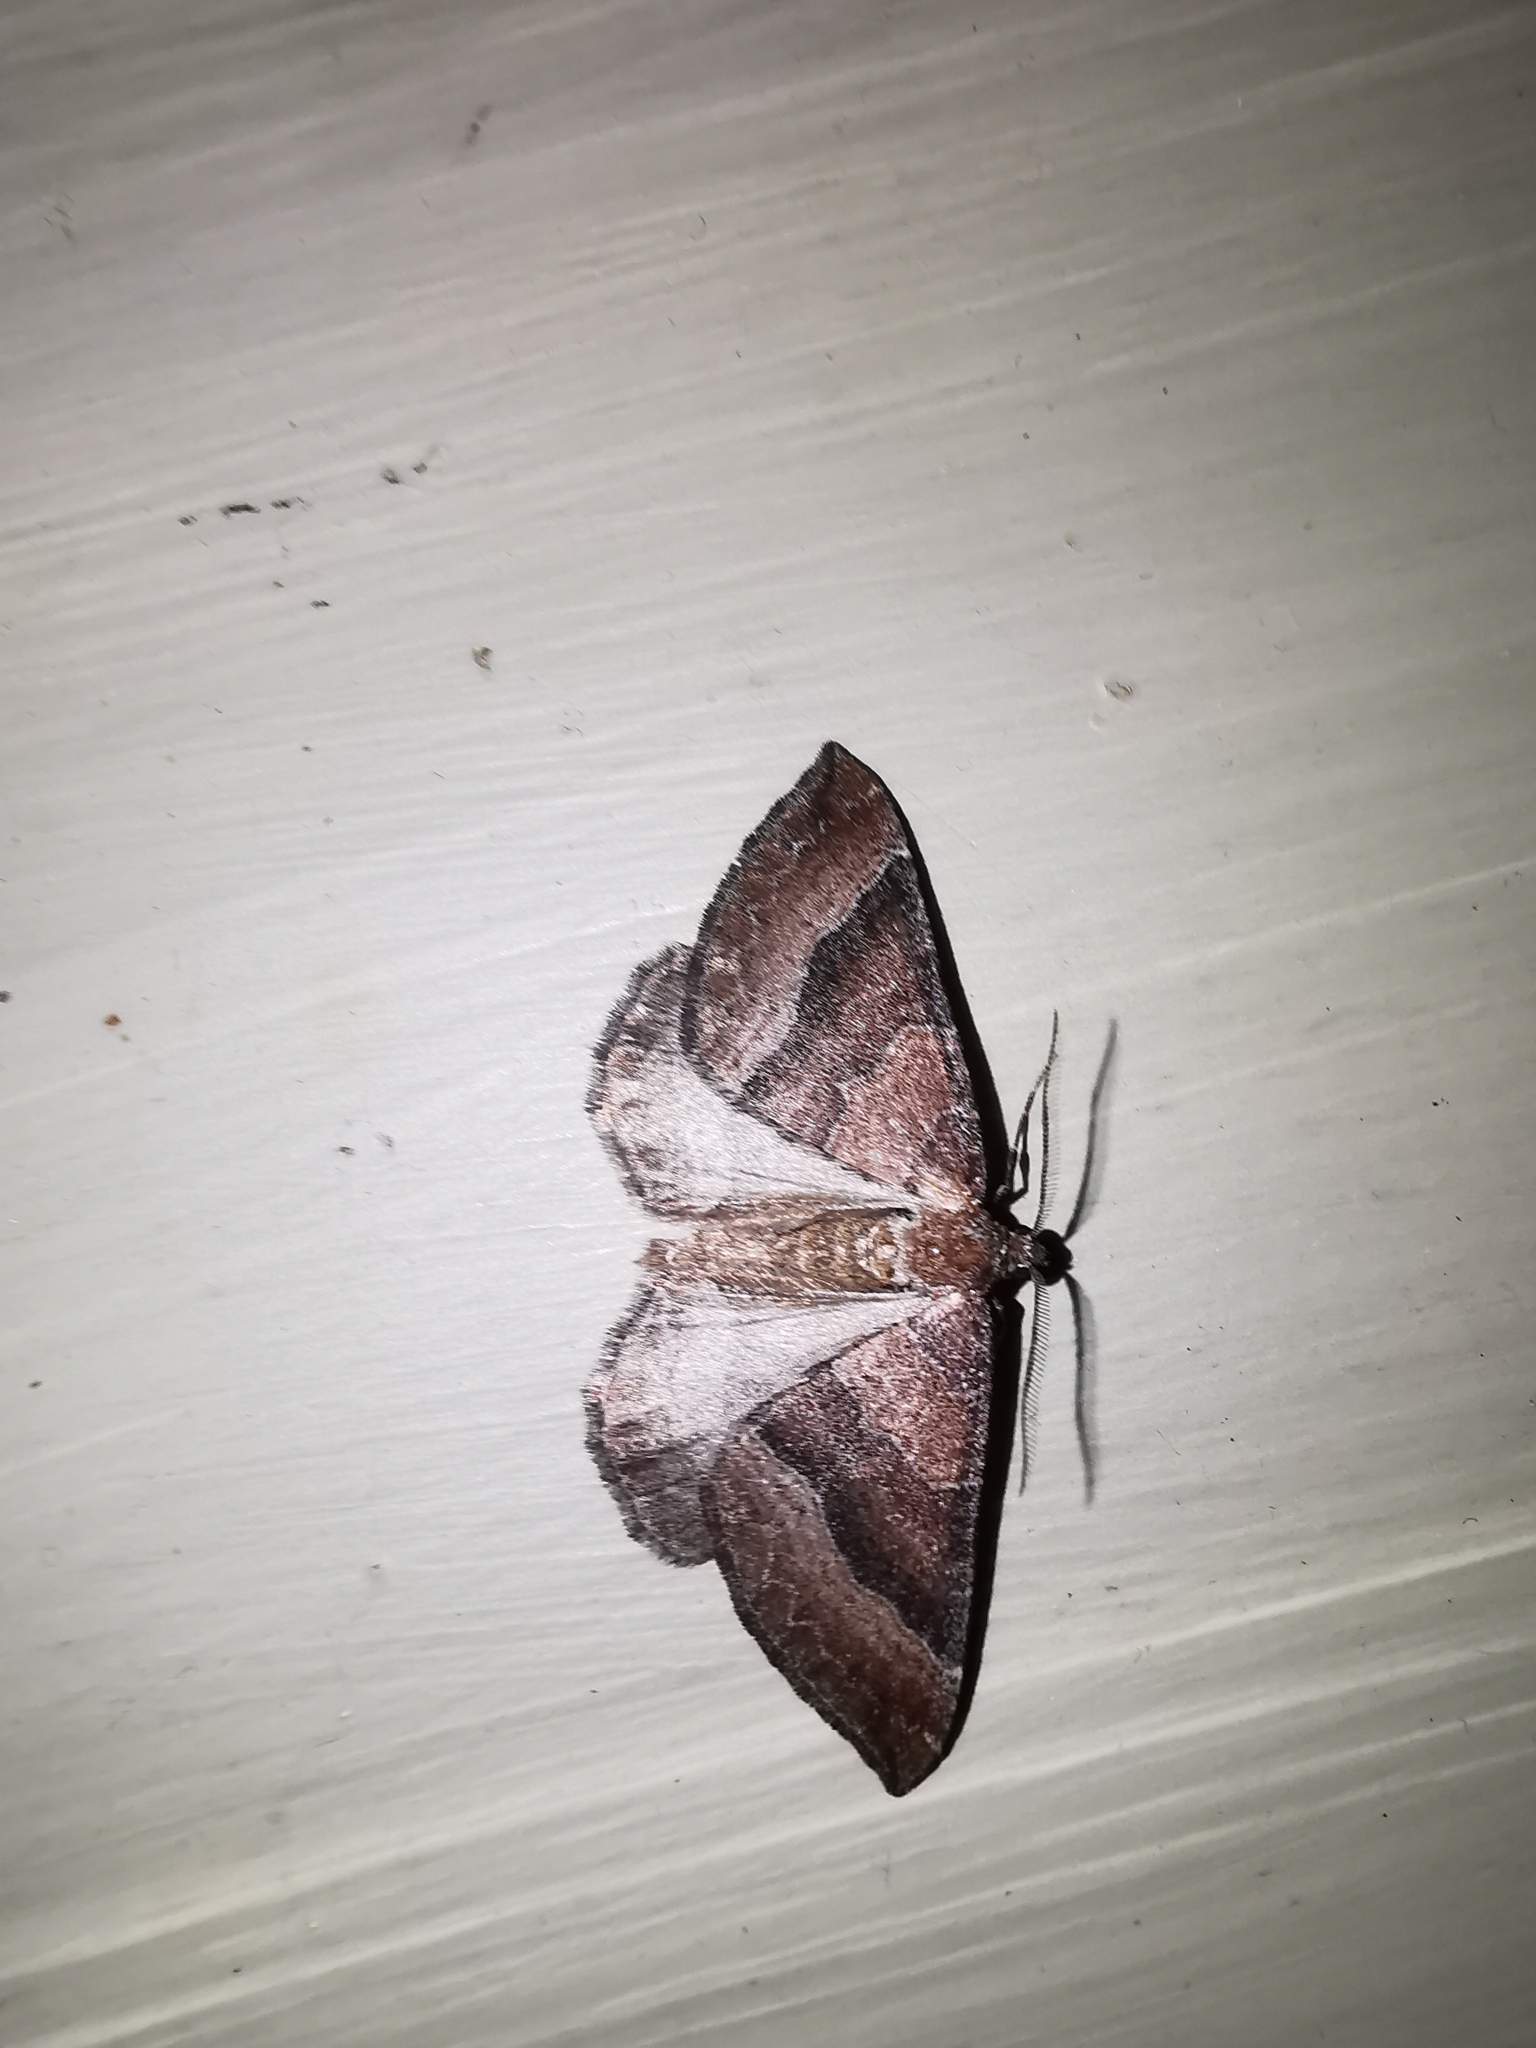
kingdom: Animalia
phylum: Arthropoda
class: Insecta
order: Lepidoptera
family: Geometridae
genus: Larentia
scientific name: Larentia clavaria
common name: Mallow
